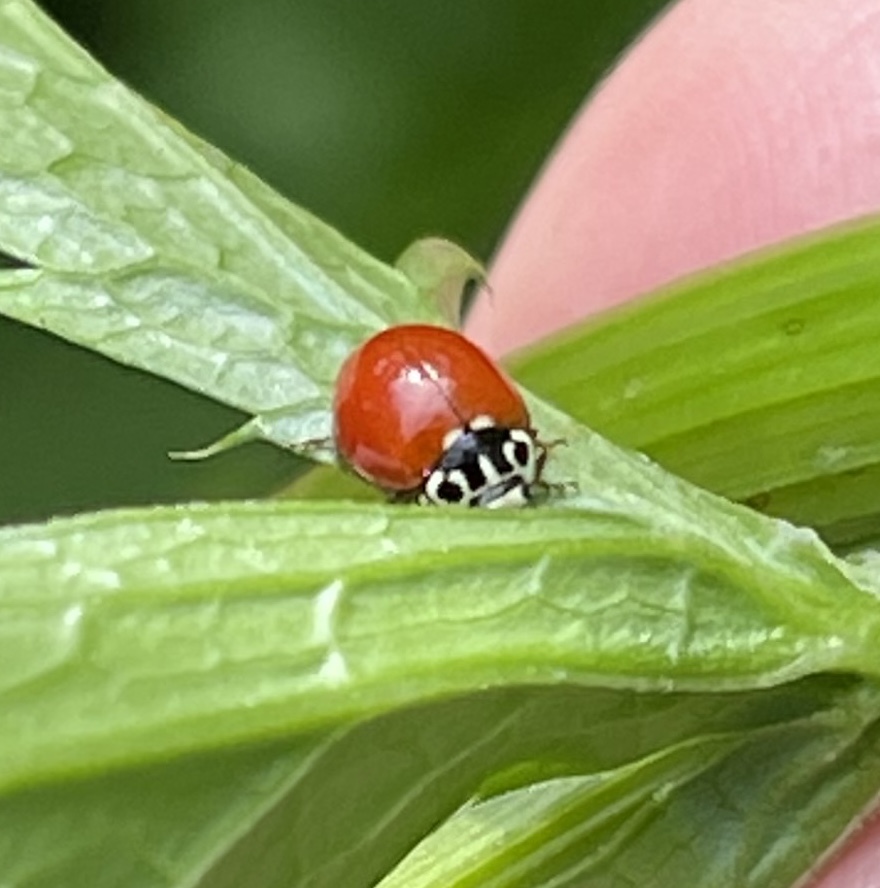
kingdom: Animalia
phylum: Arthropoda
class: Insecta
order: Coleoptera
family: Coccinellidae
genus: Cycloneda
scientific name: Cycloneda polita
